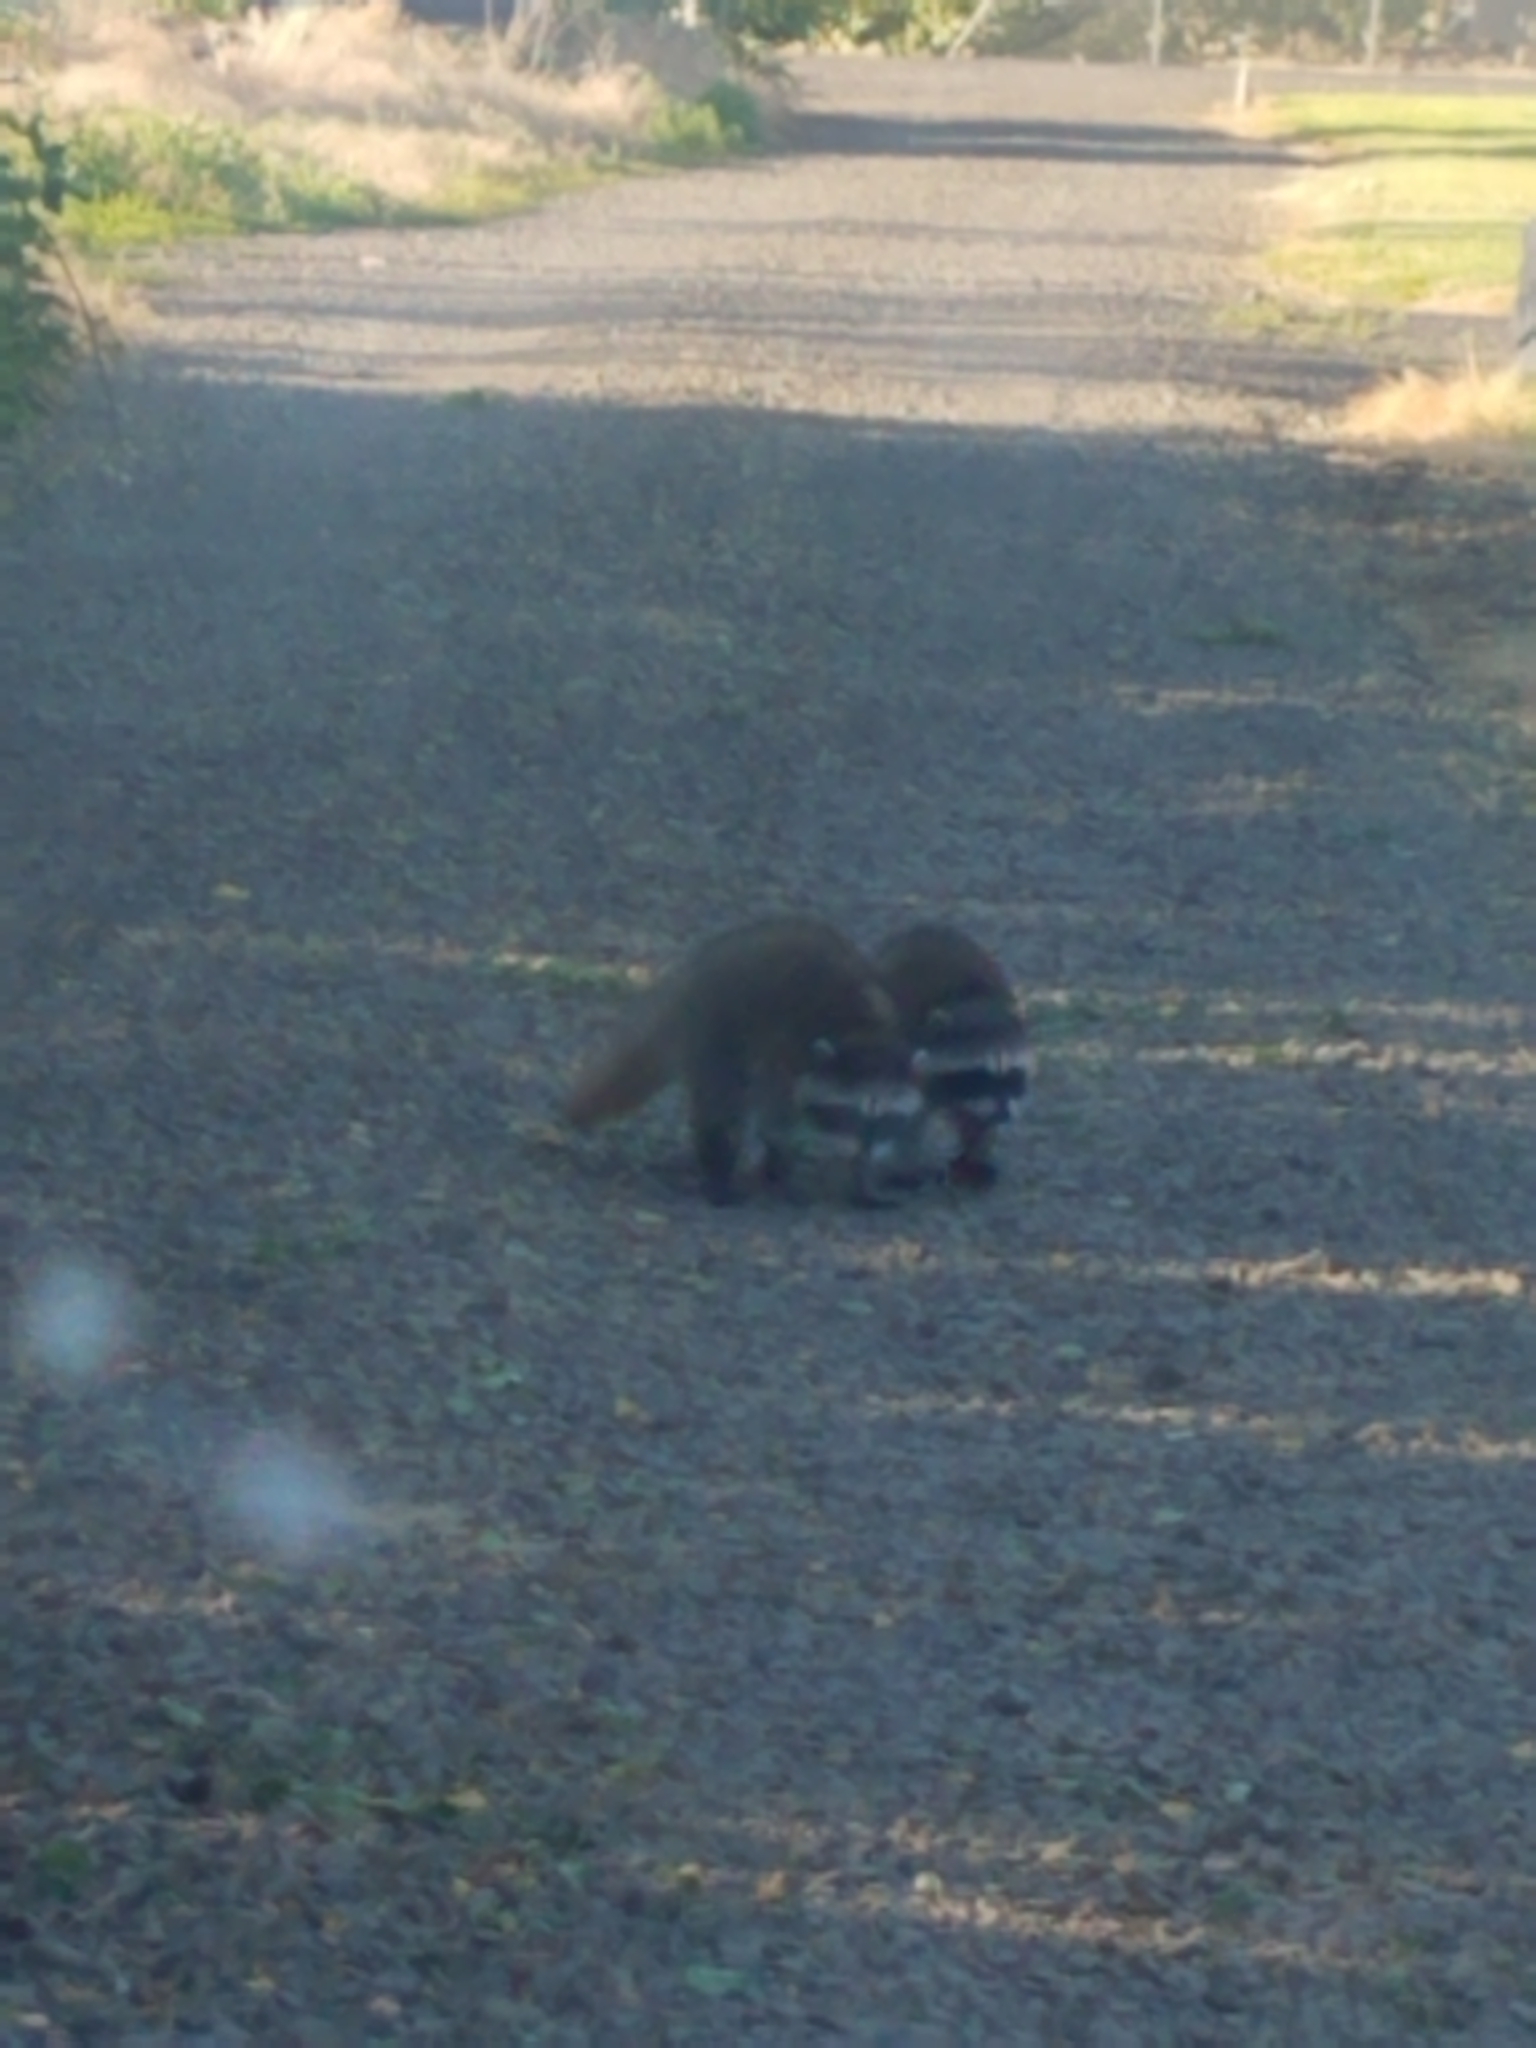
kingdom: Animalia
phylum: Chordata
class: Mammalia
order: Carnivora
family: Procyonidae
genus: Procyon
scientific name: Procyon lotor
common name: Raccoon
